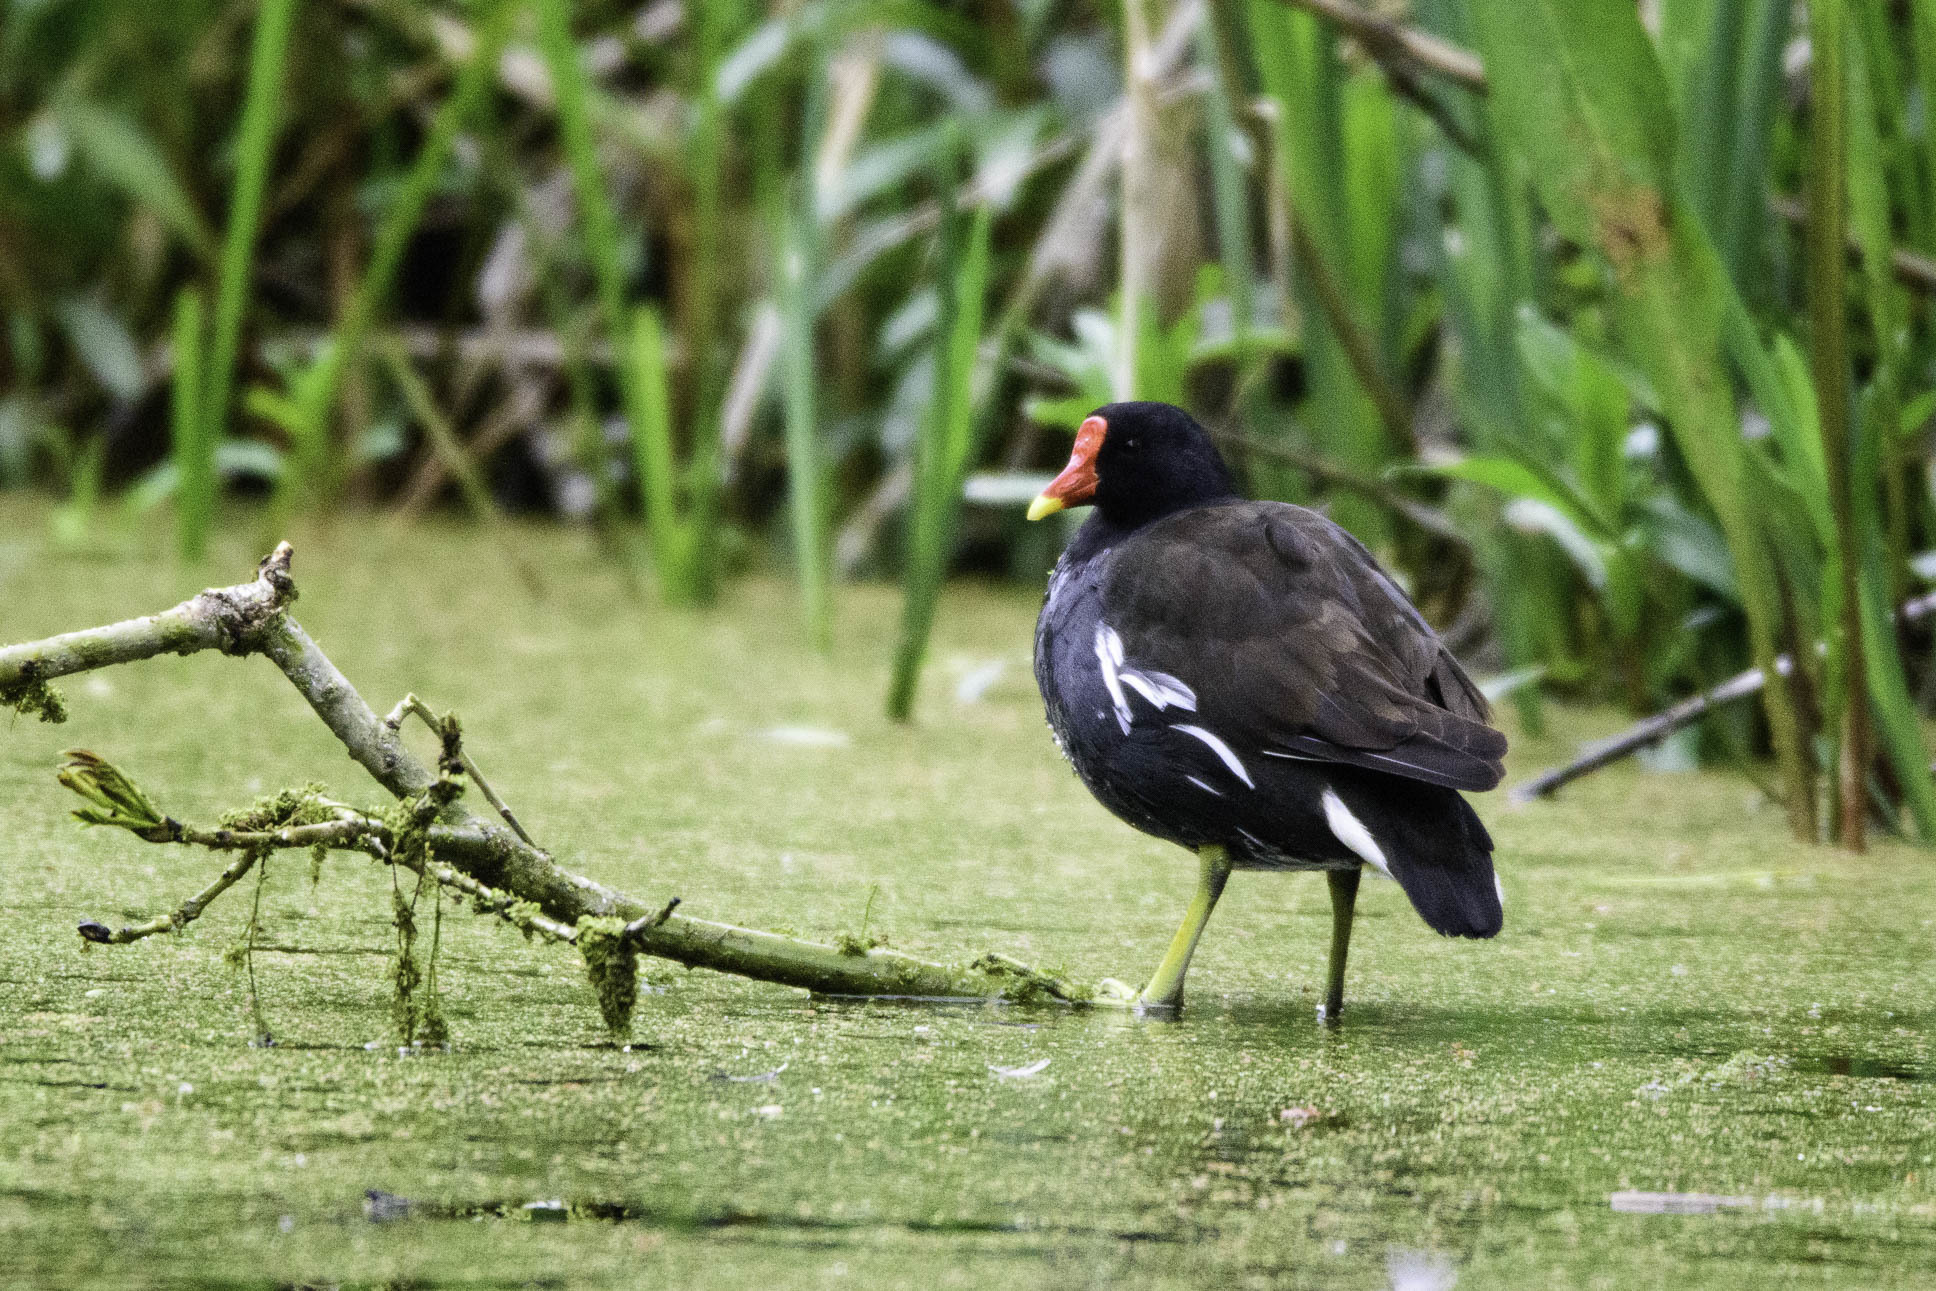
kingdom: Animalia
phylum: Chordata
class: Aves
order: Gruiformes
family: Rallidae
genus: Gallinula
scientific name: Gallinula chloropus
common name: Common moorhen
